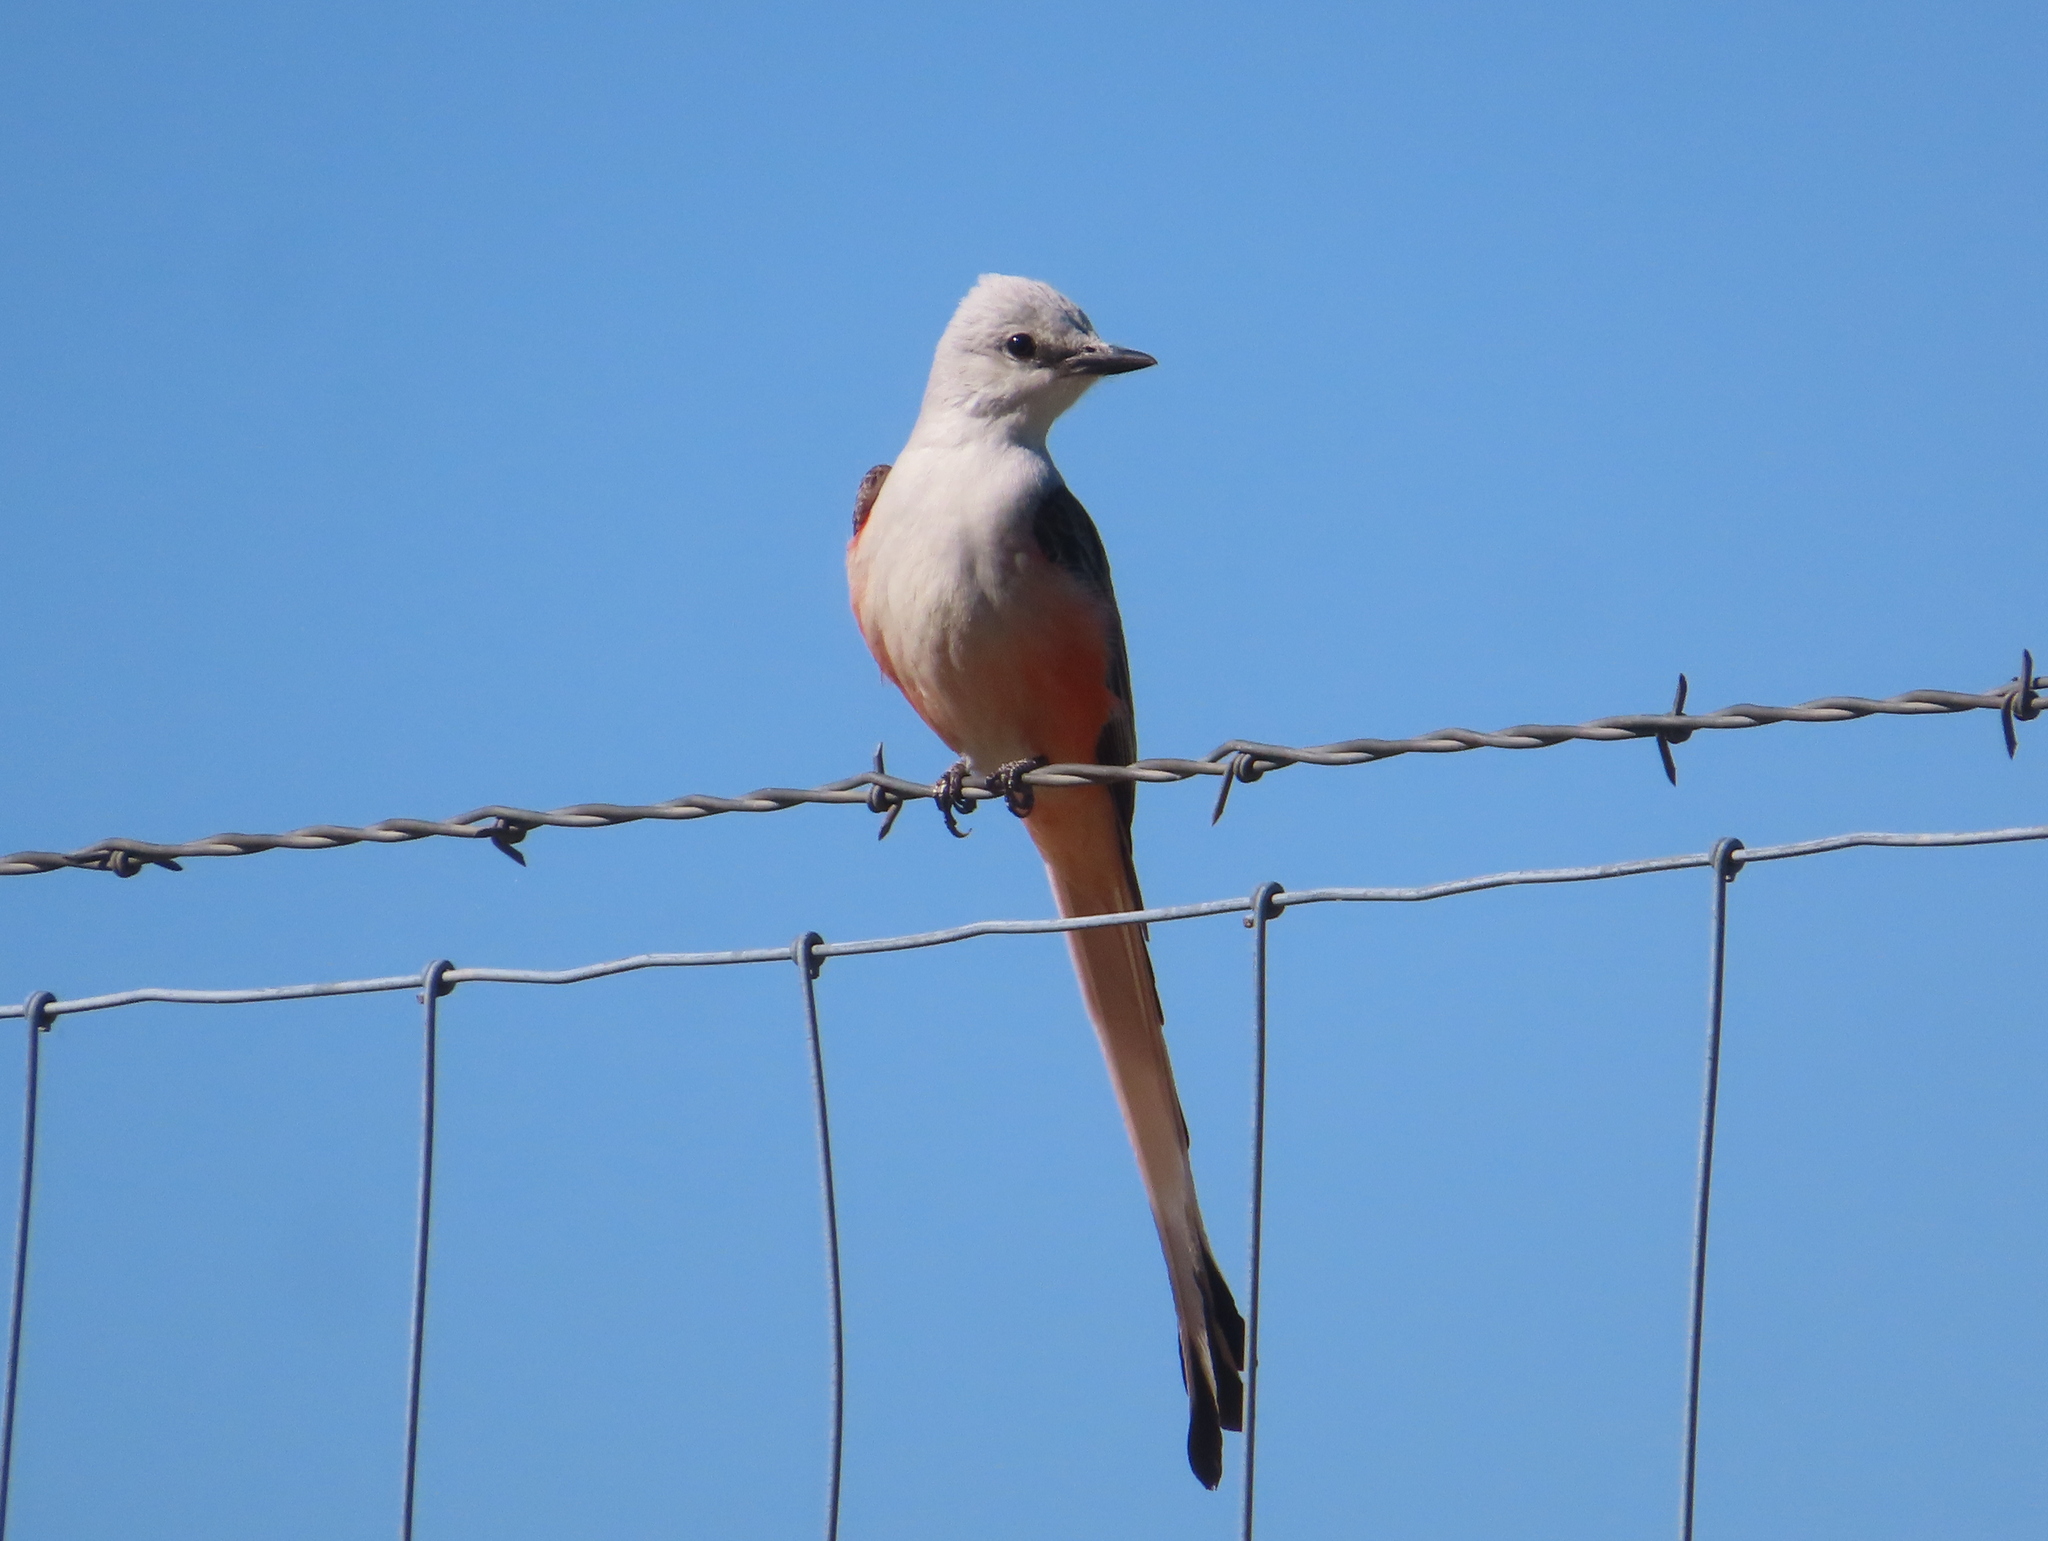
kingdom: Animalia
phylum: Chordata
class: Aves
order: Passeriformes
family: Tyrannidae
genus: Tyrannus
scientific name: Tyrannus forficatus
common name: Scissor-tailed flycatcher
